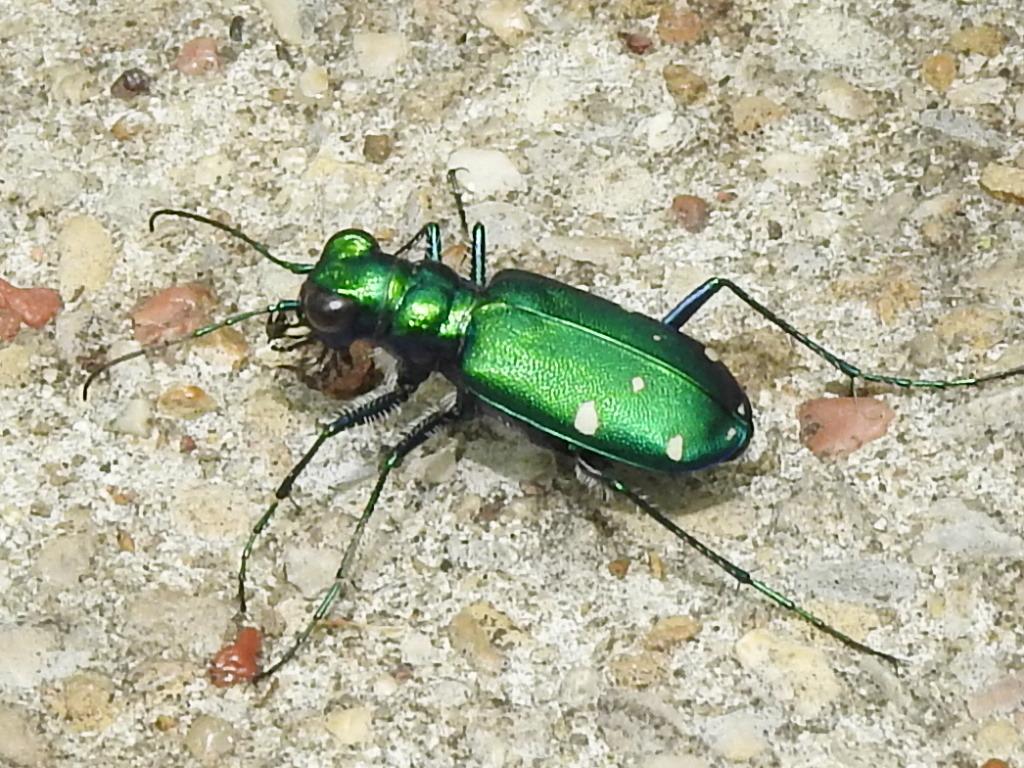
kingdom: Animalia
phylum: Arthropoda
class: Insecta
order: Coleoptera
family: Carabidae
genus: Cicindela
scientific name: Cicindela sexguttata
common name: Six-spotted tiger beetle
